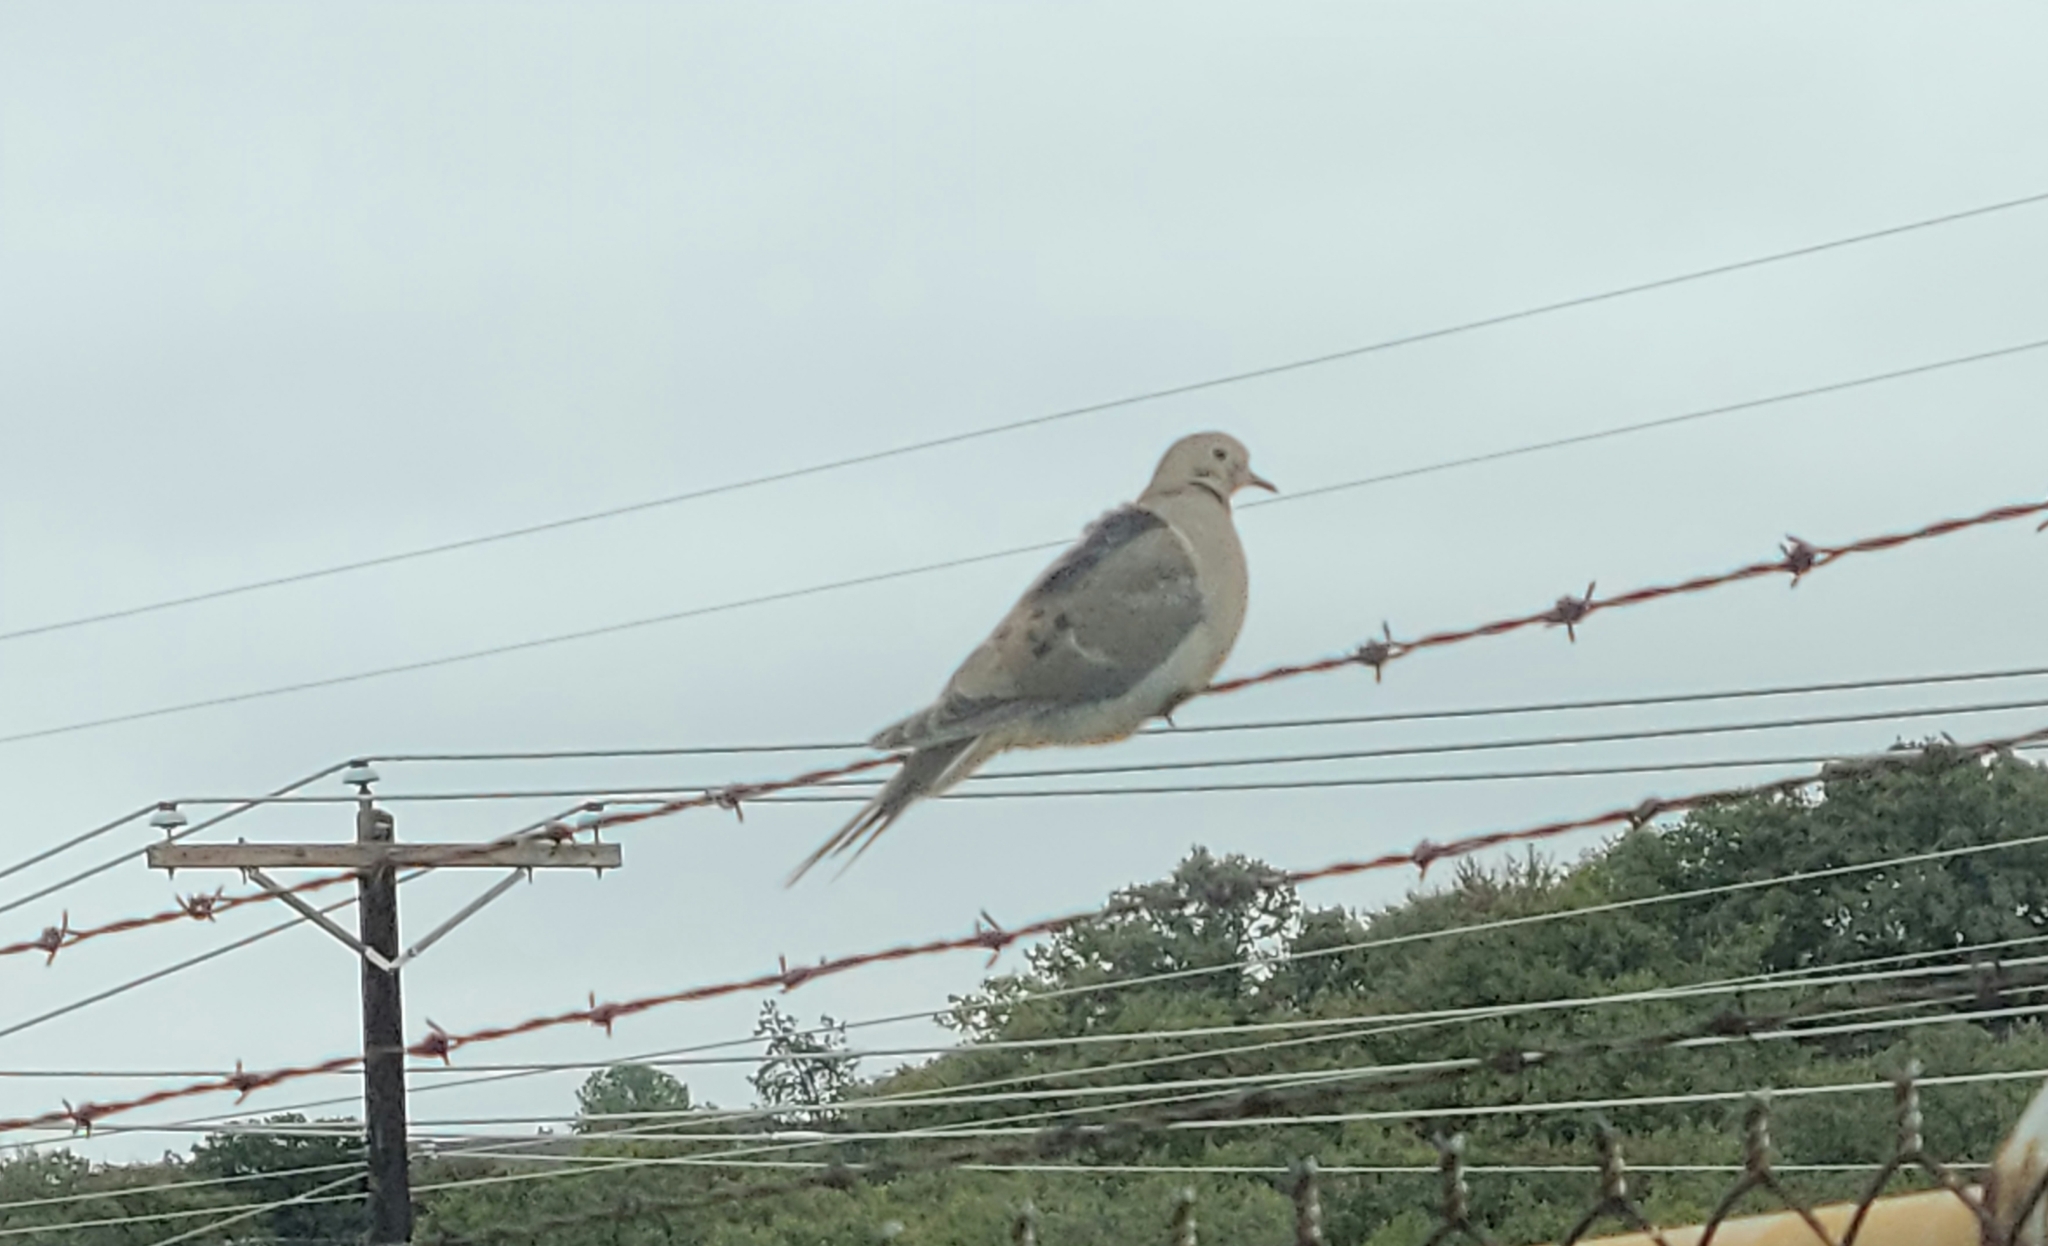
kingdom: Animalia
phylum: Chordata
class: Aves
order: Columbiformes
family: Columbidae
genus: Zenaida
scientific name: Zenaida macroura
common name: Mourning dove
